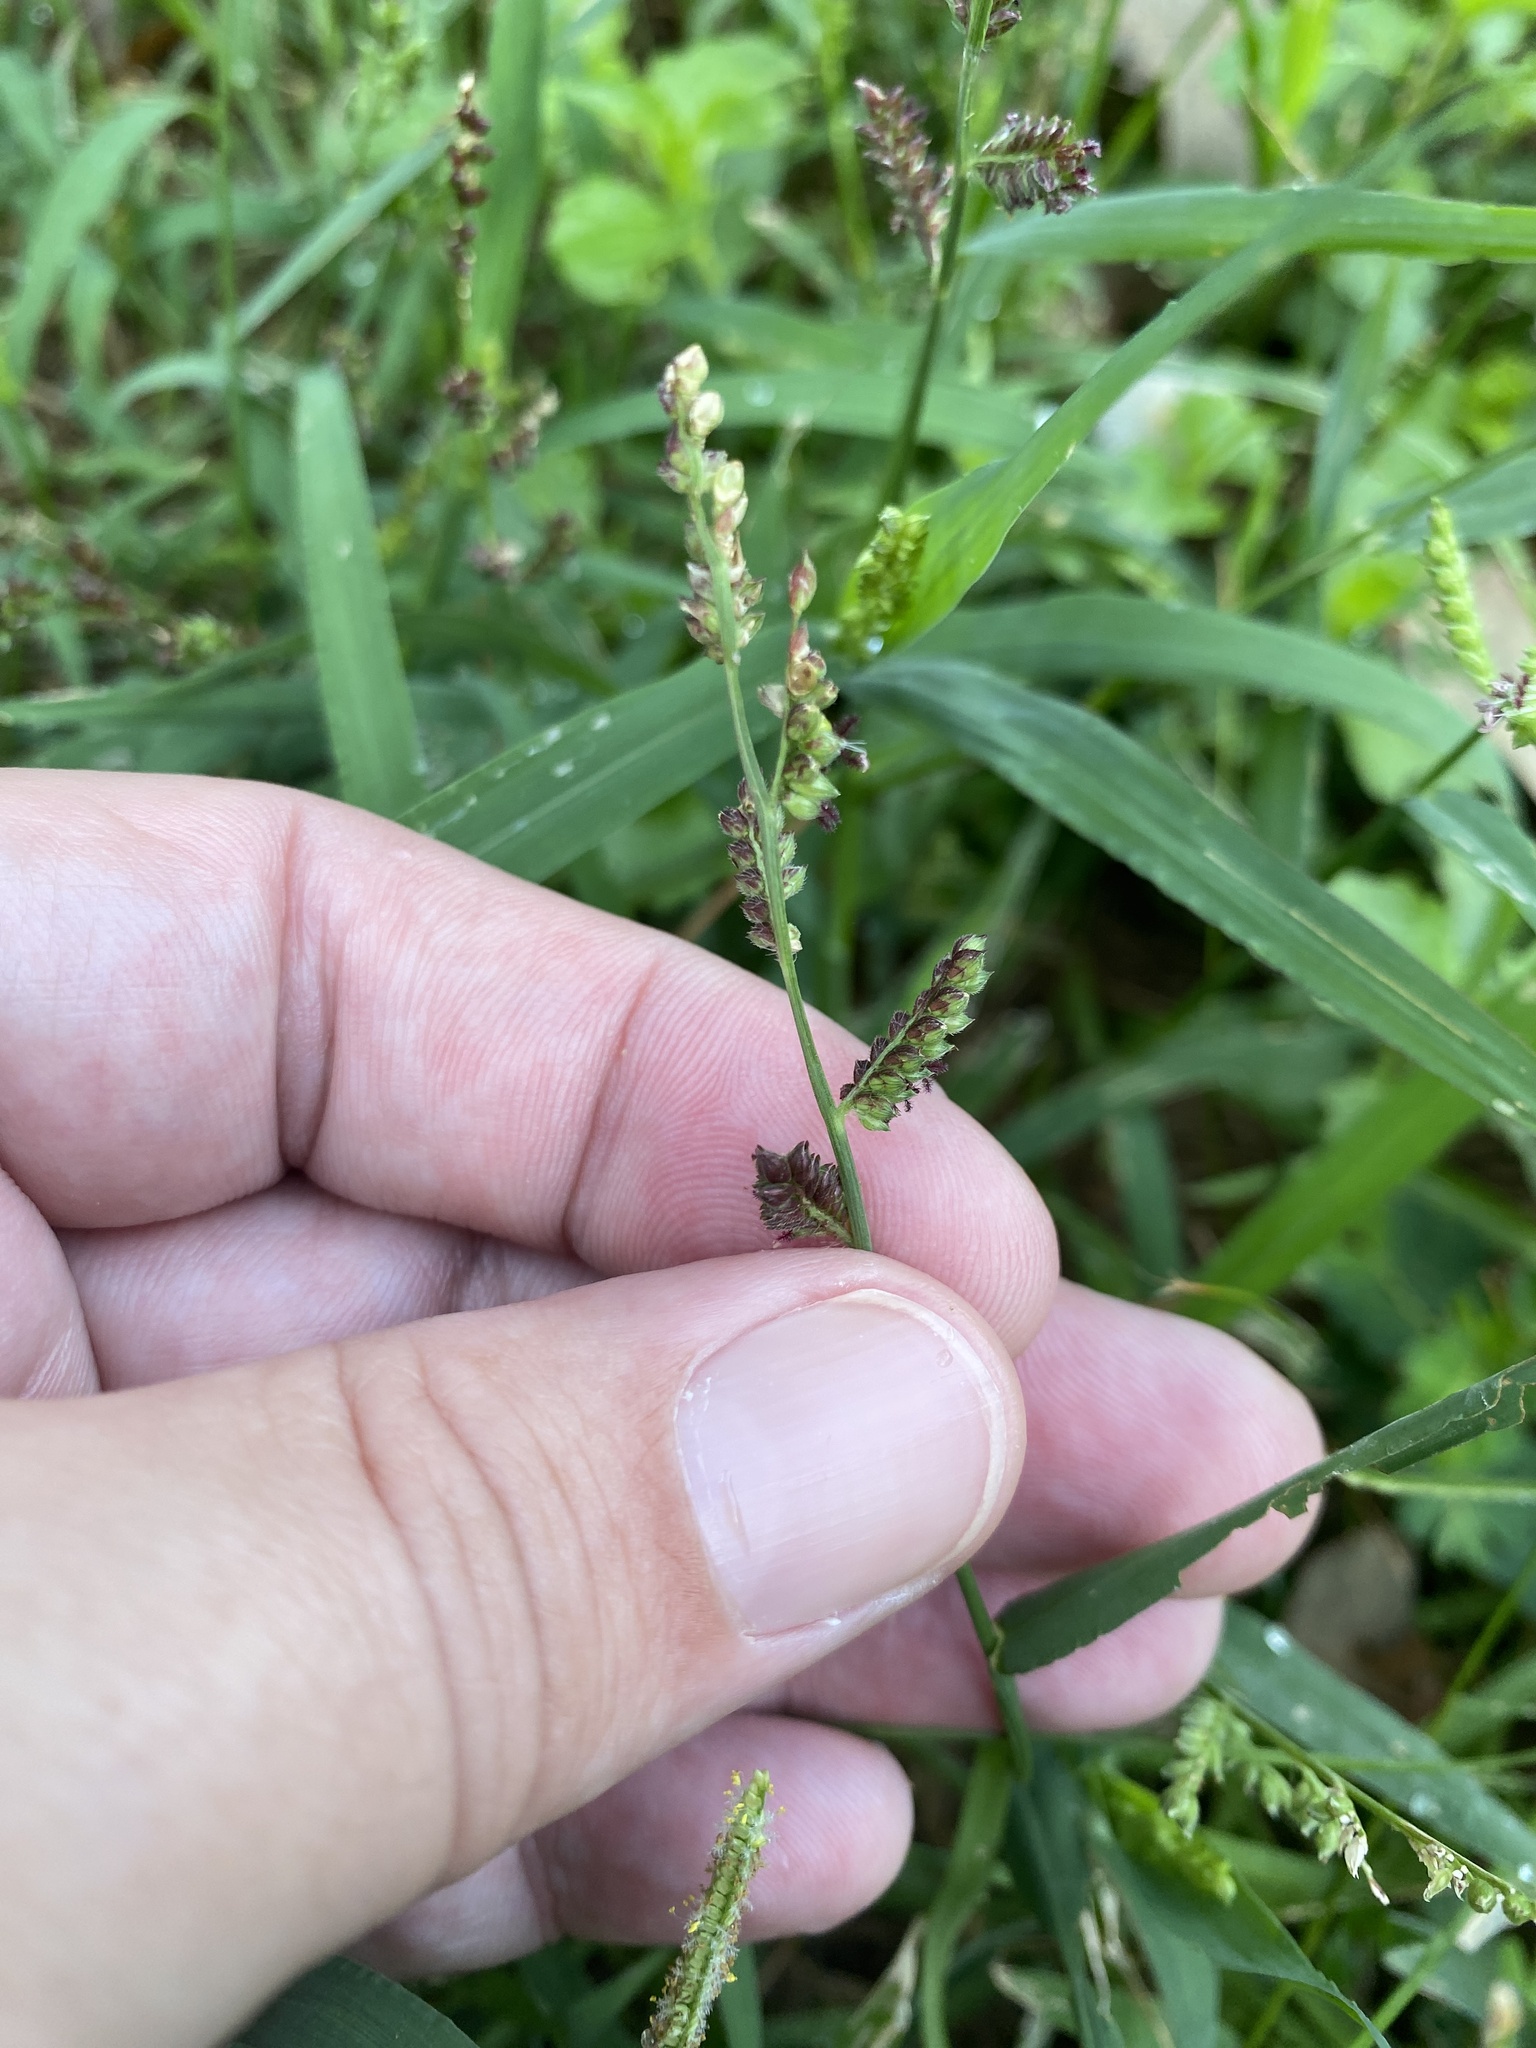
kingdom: Plantae
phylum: Tracheophyta
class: Liliopsida
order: Poales
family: Poaceae
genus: Echinochloa
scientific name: Echinochloa colonum
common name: Jungle rice
